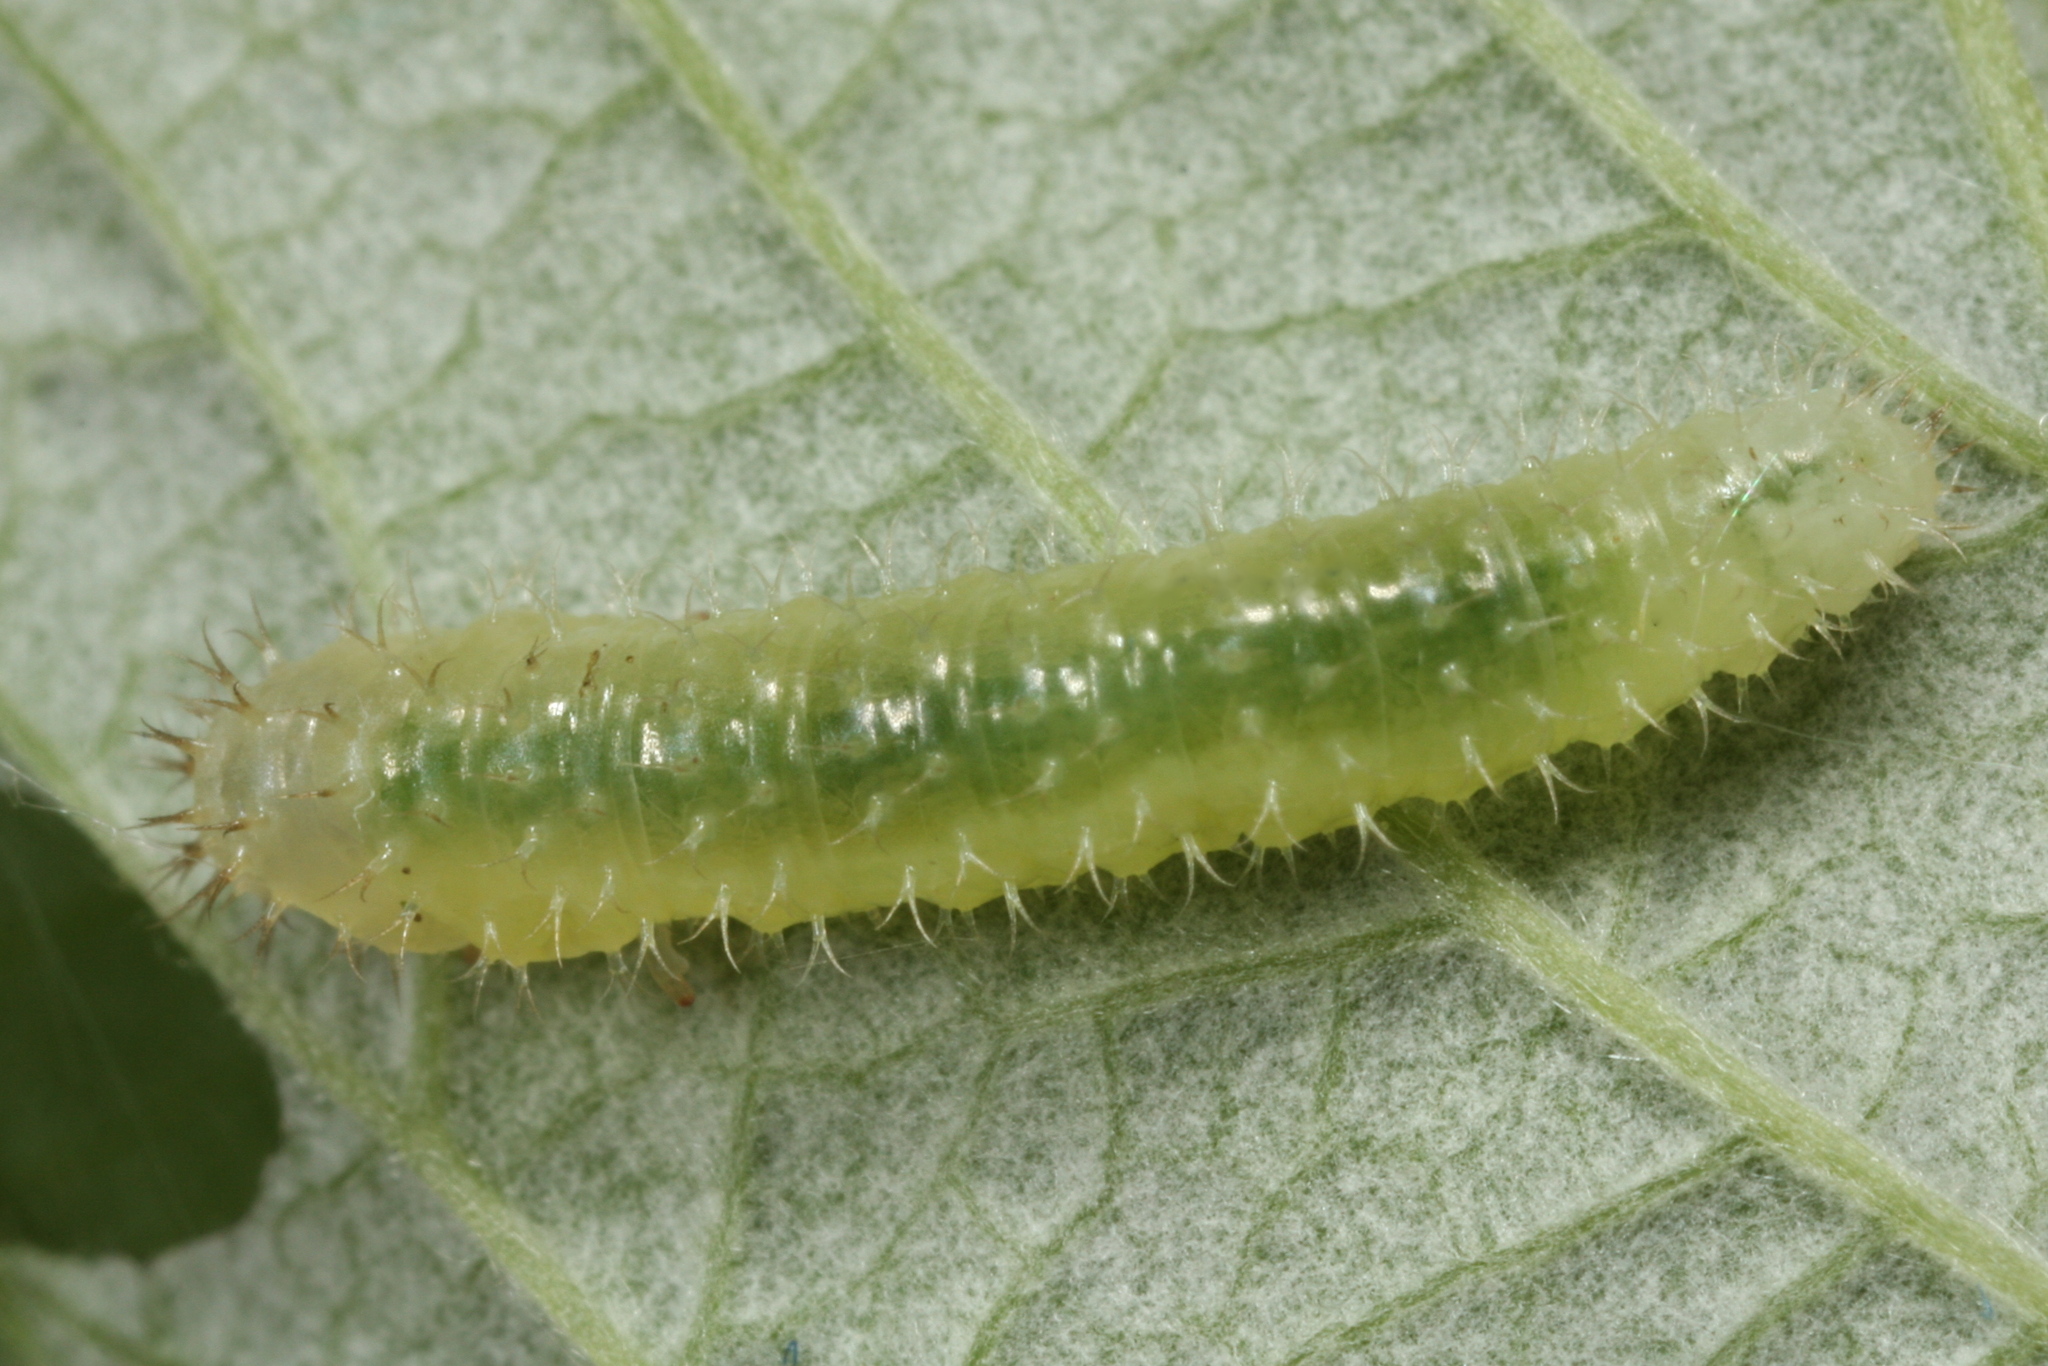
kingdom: Animalia
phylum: Arthropoda
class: Insecta
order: Hymenoptera
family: Tenthredinidae
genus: Claremontia
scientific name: Claremontia alternipes
